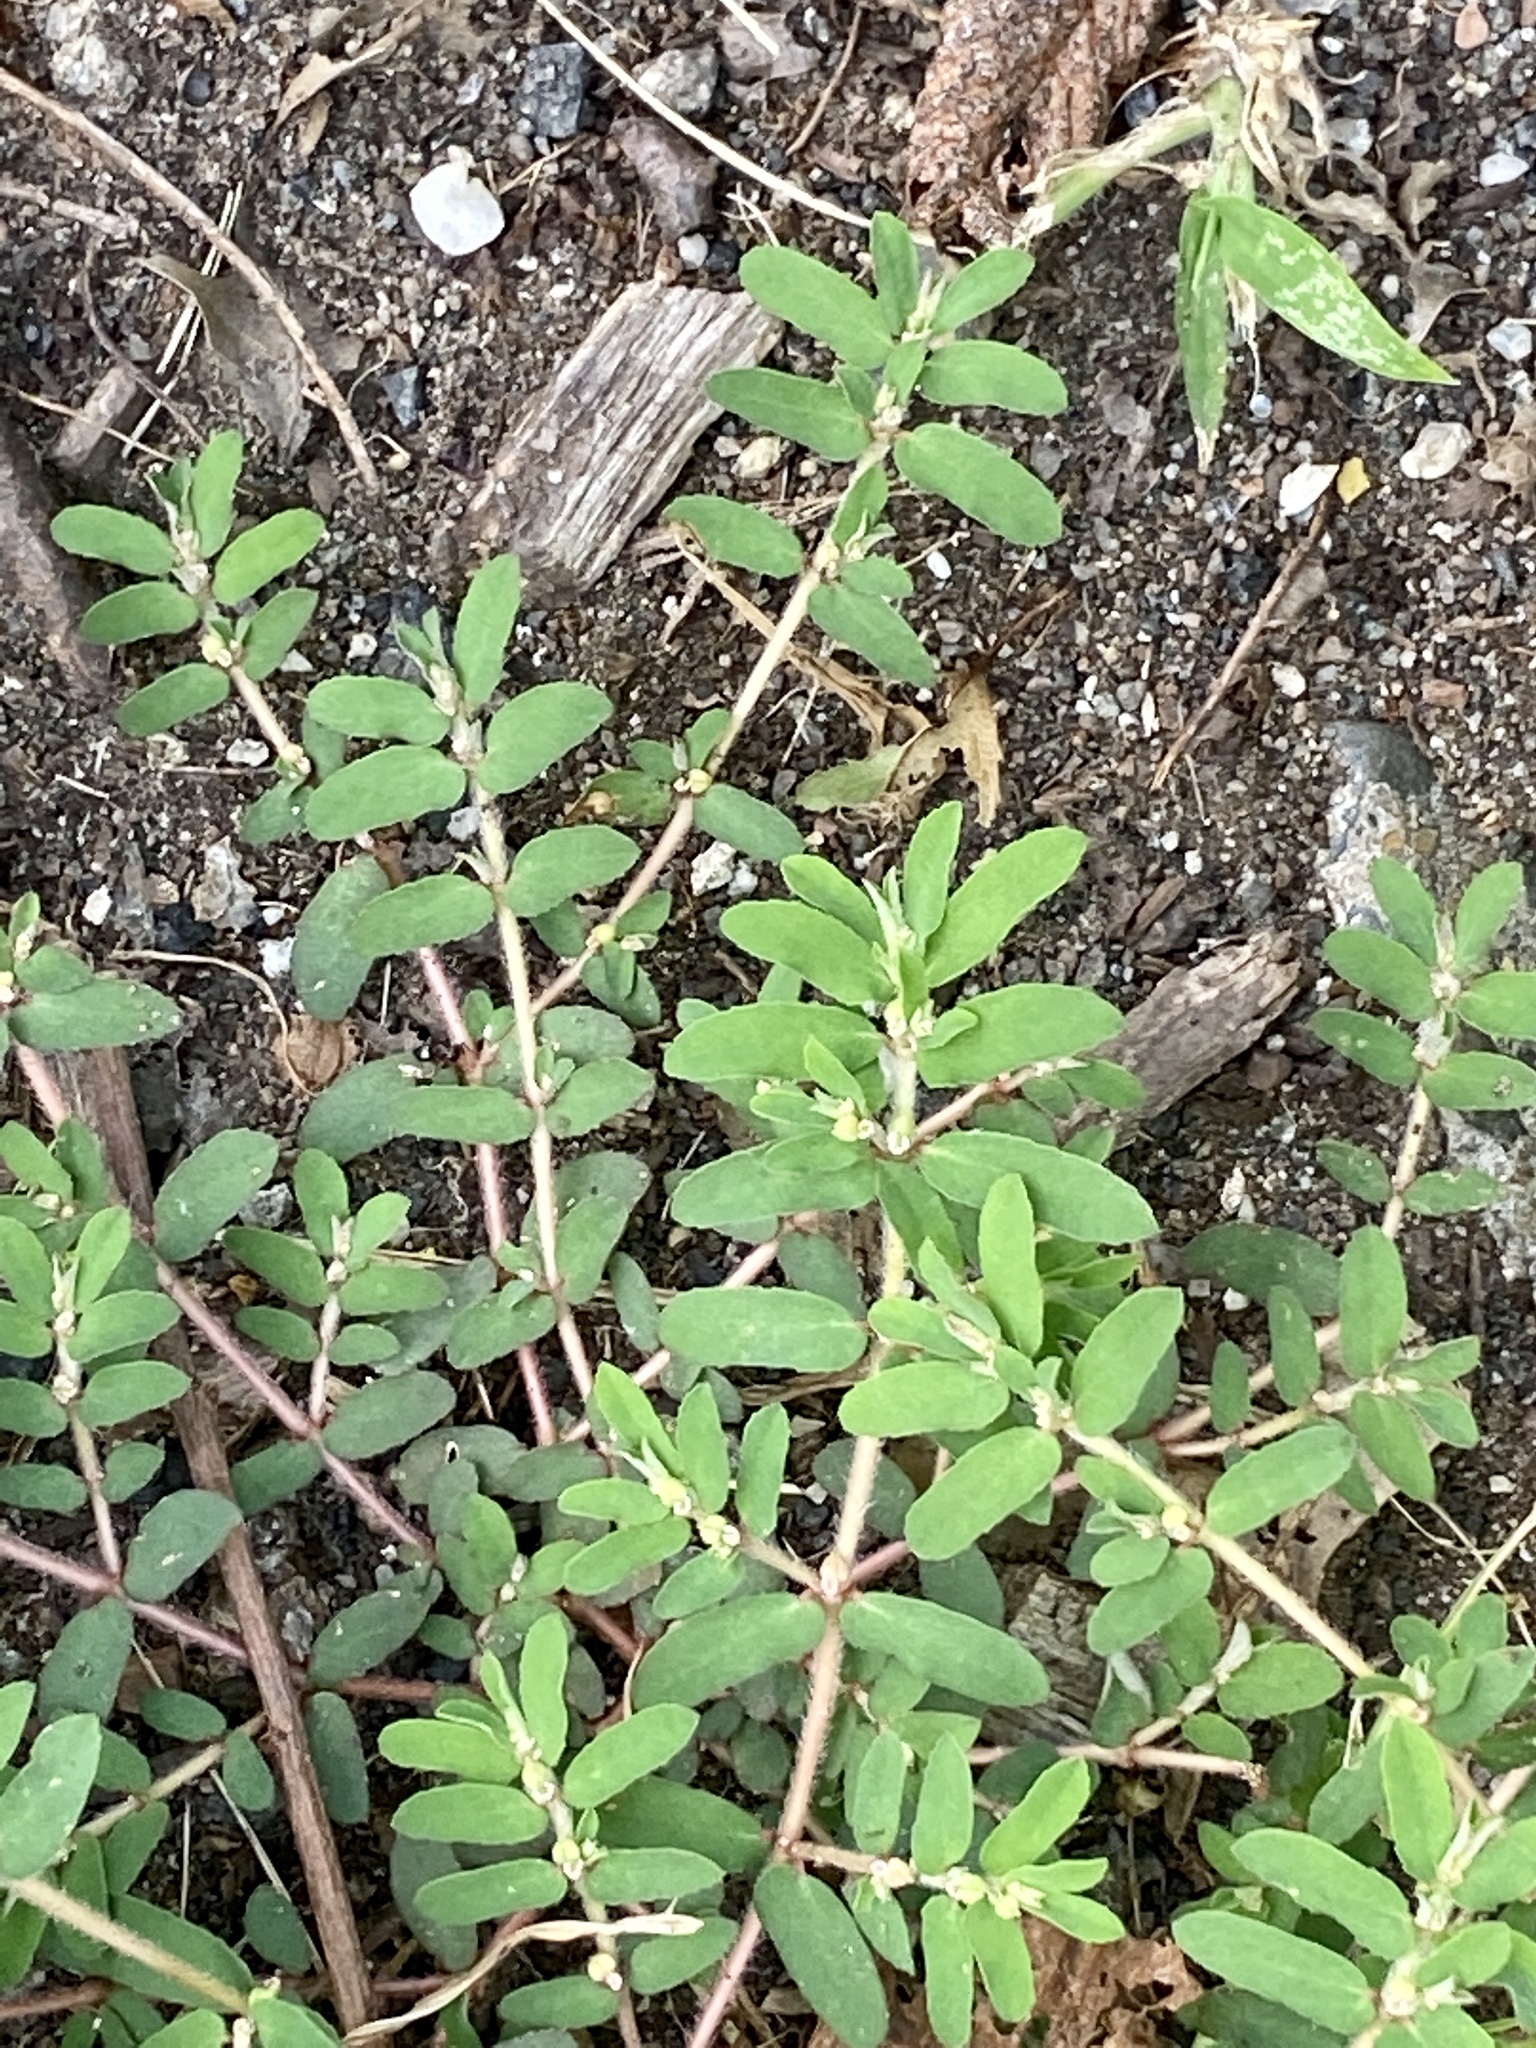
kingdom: Plantae
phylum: Tracheophyta
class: Magnoliopsida
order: Malpighiales
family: Euphorbiaceae
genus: Euphorbia
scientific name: Euphorbia maculata
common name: Spotted spurge
